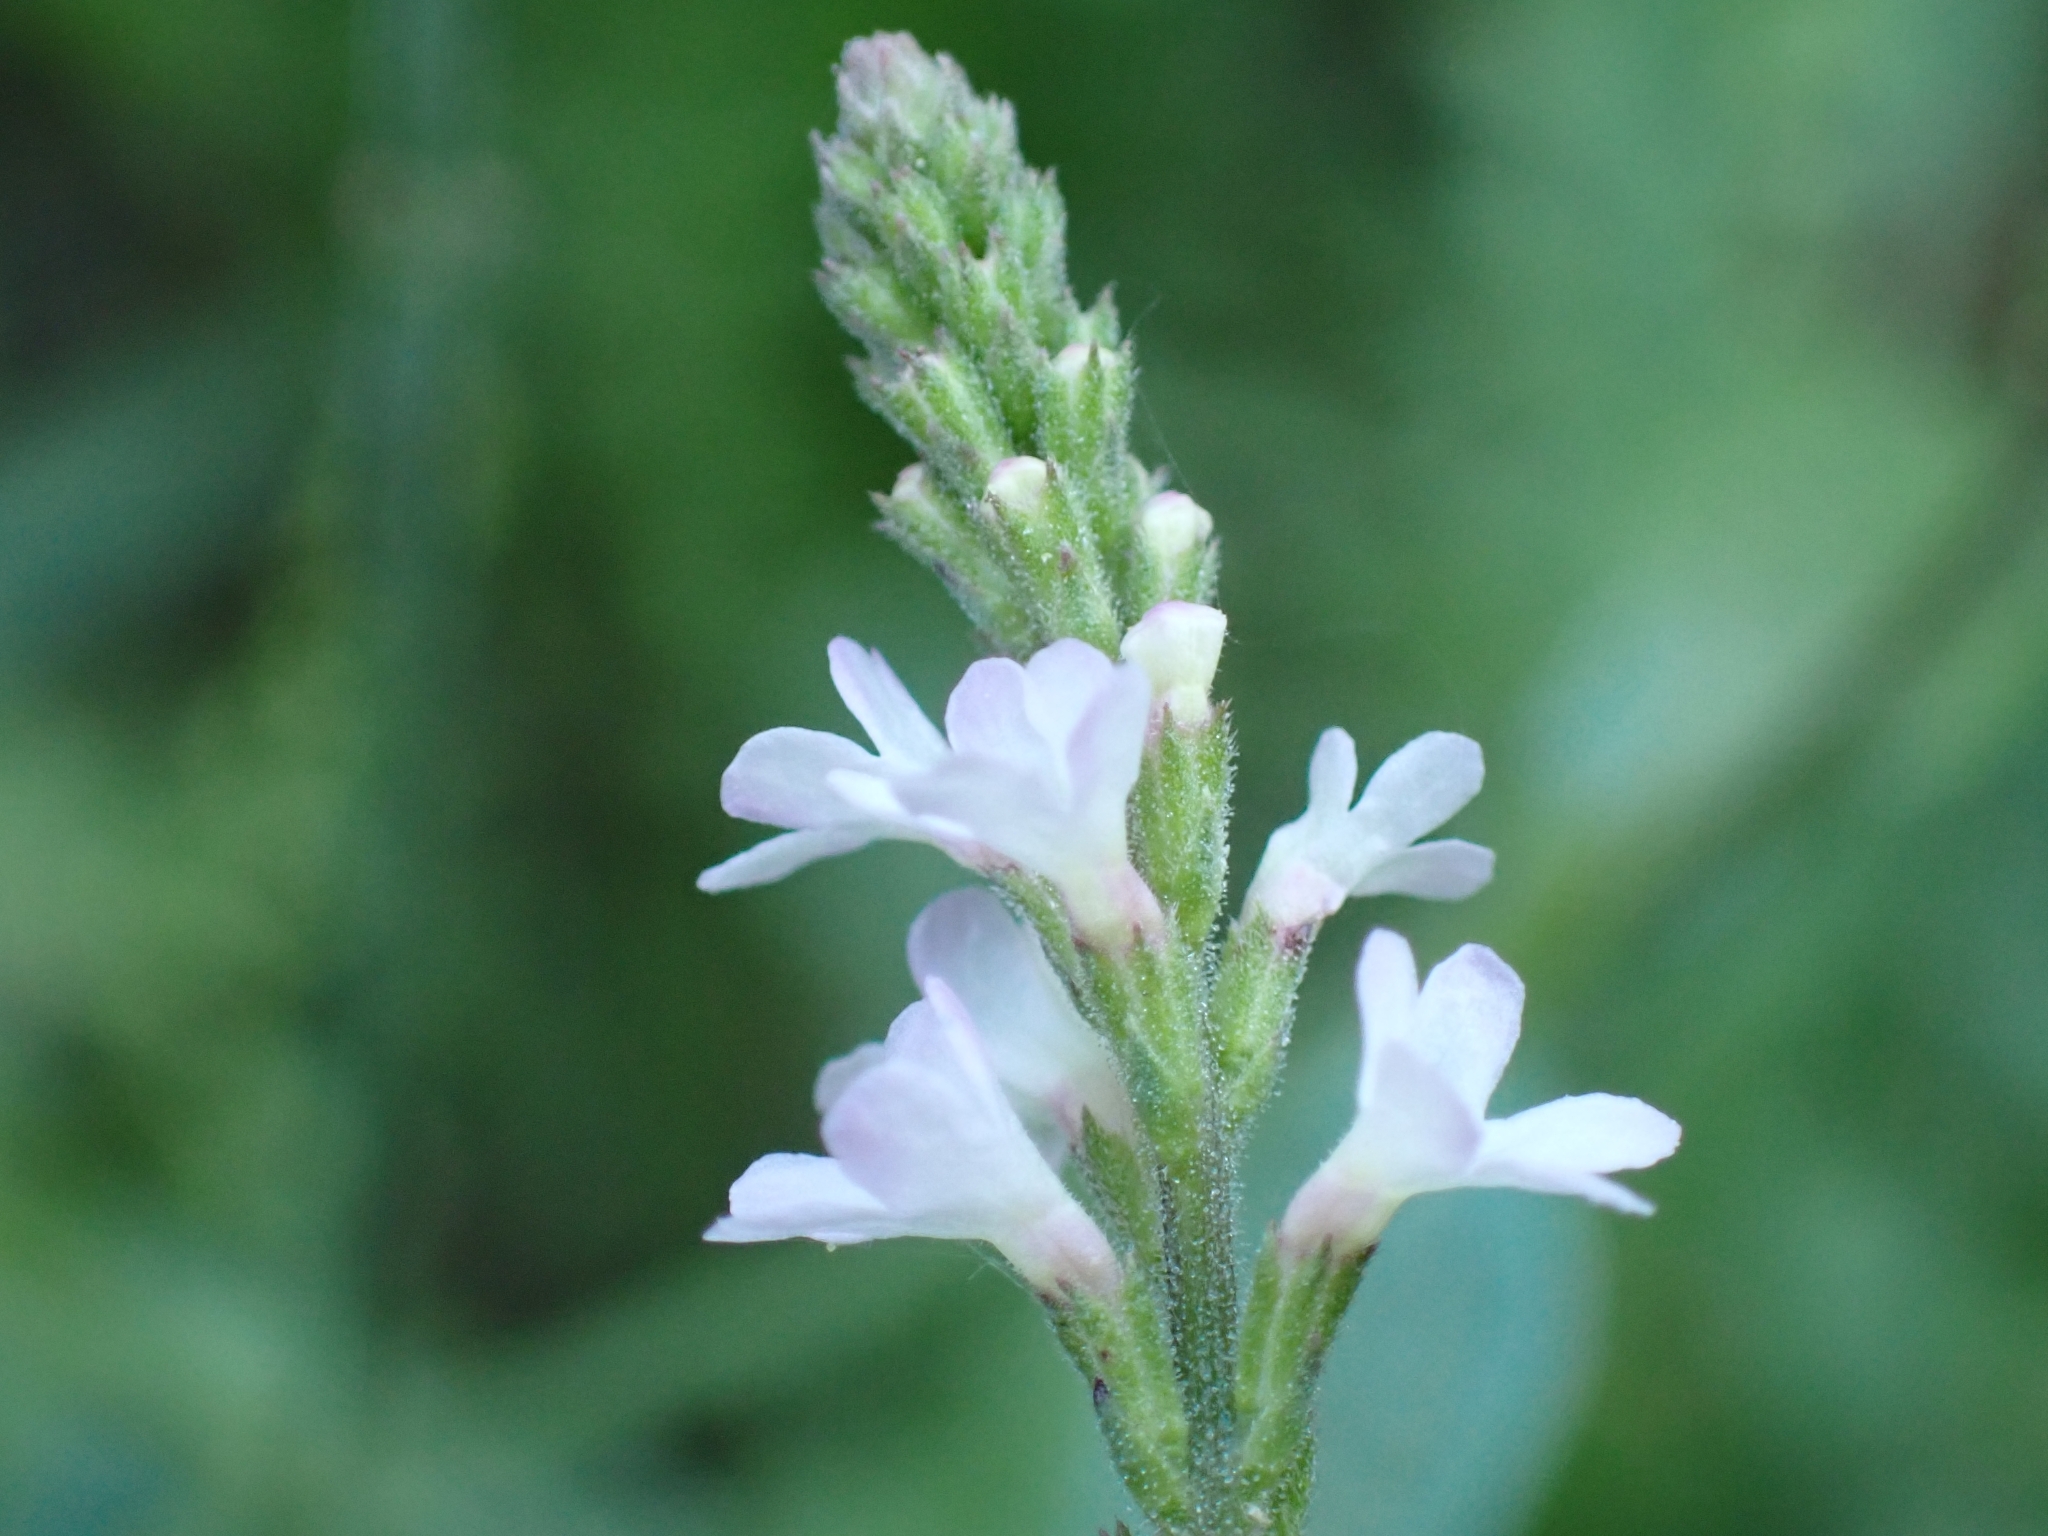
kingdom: Plantae
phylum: Tracheophyta
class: Magnoliopsida
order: Lamiales
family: Verbenaceae
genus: Verbena
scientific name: Verbena officinalis
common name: Vervain
